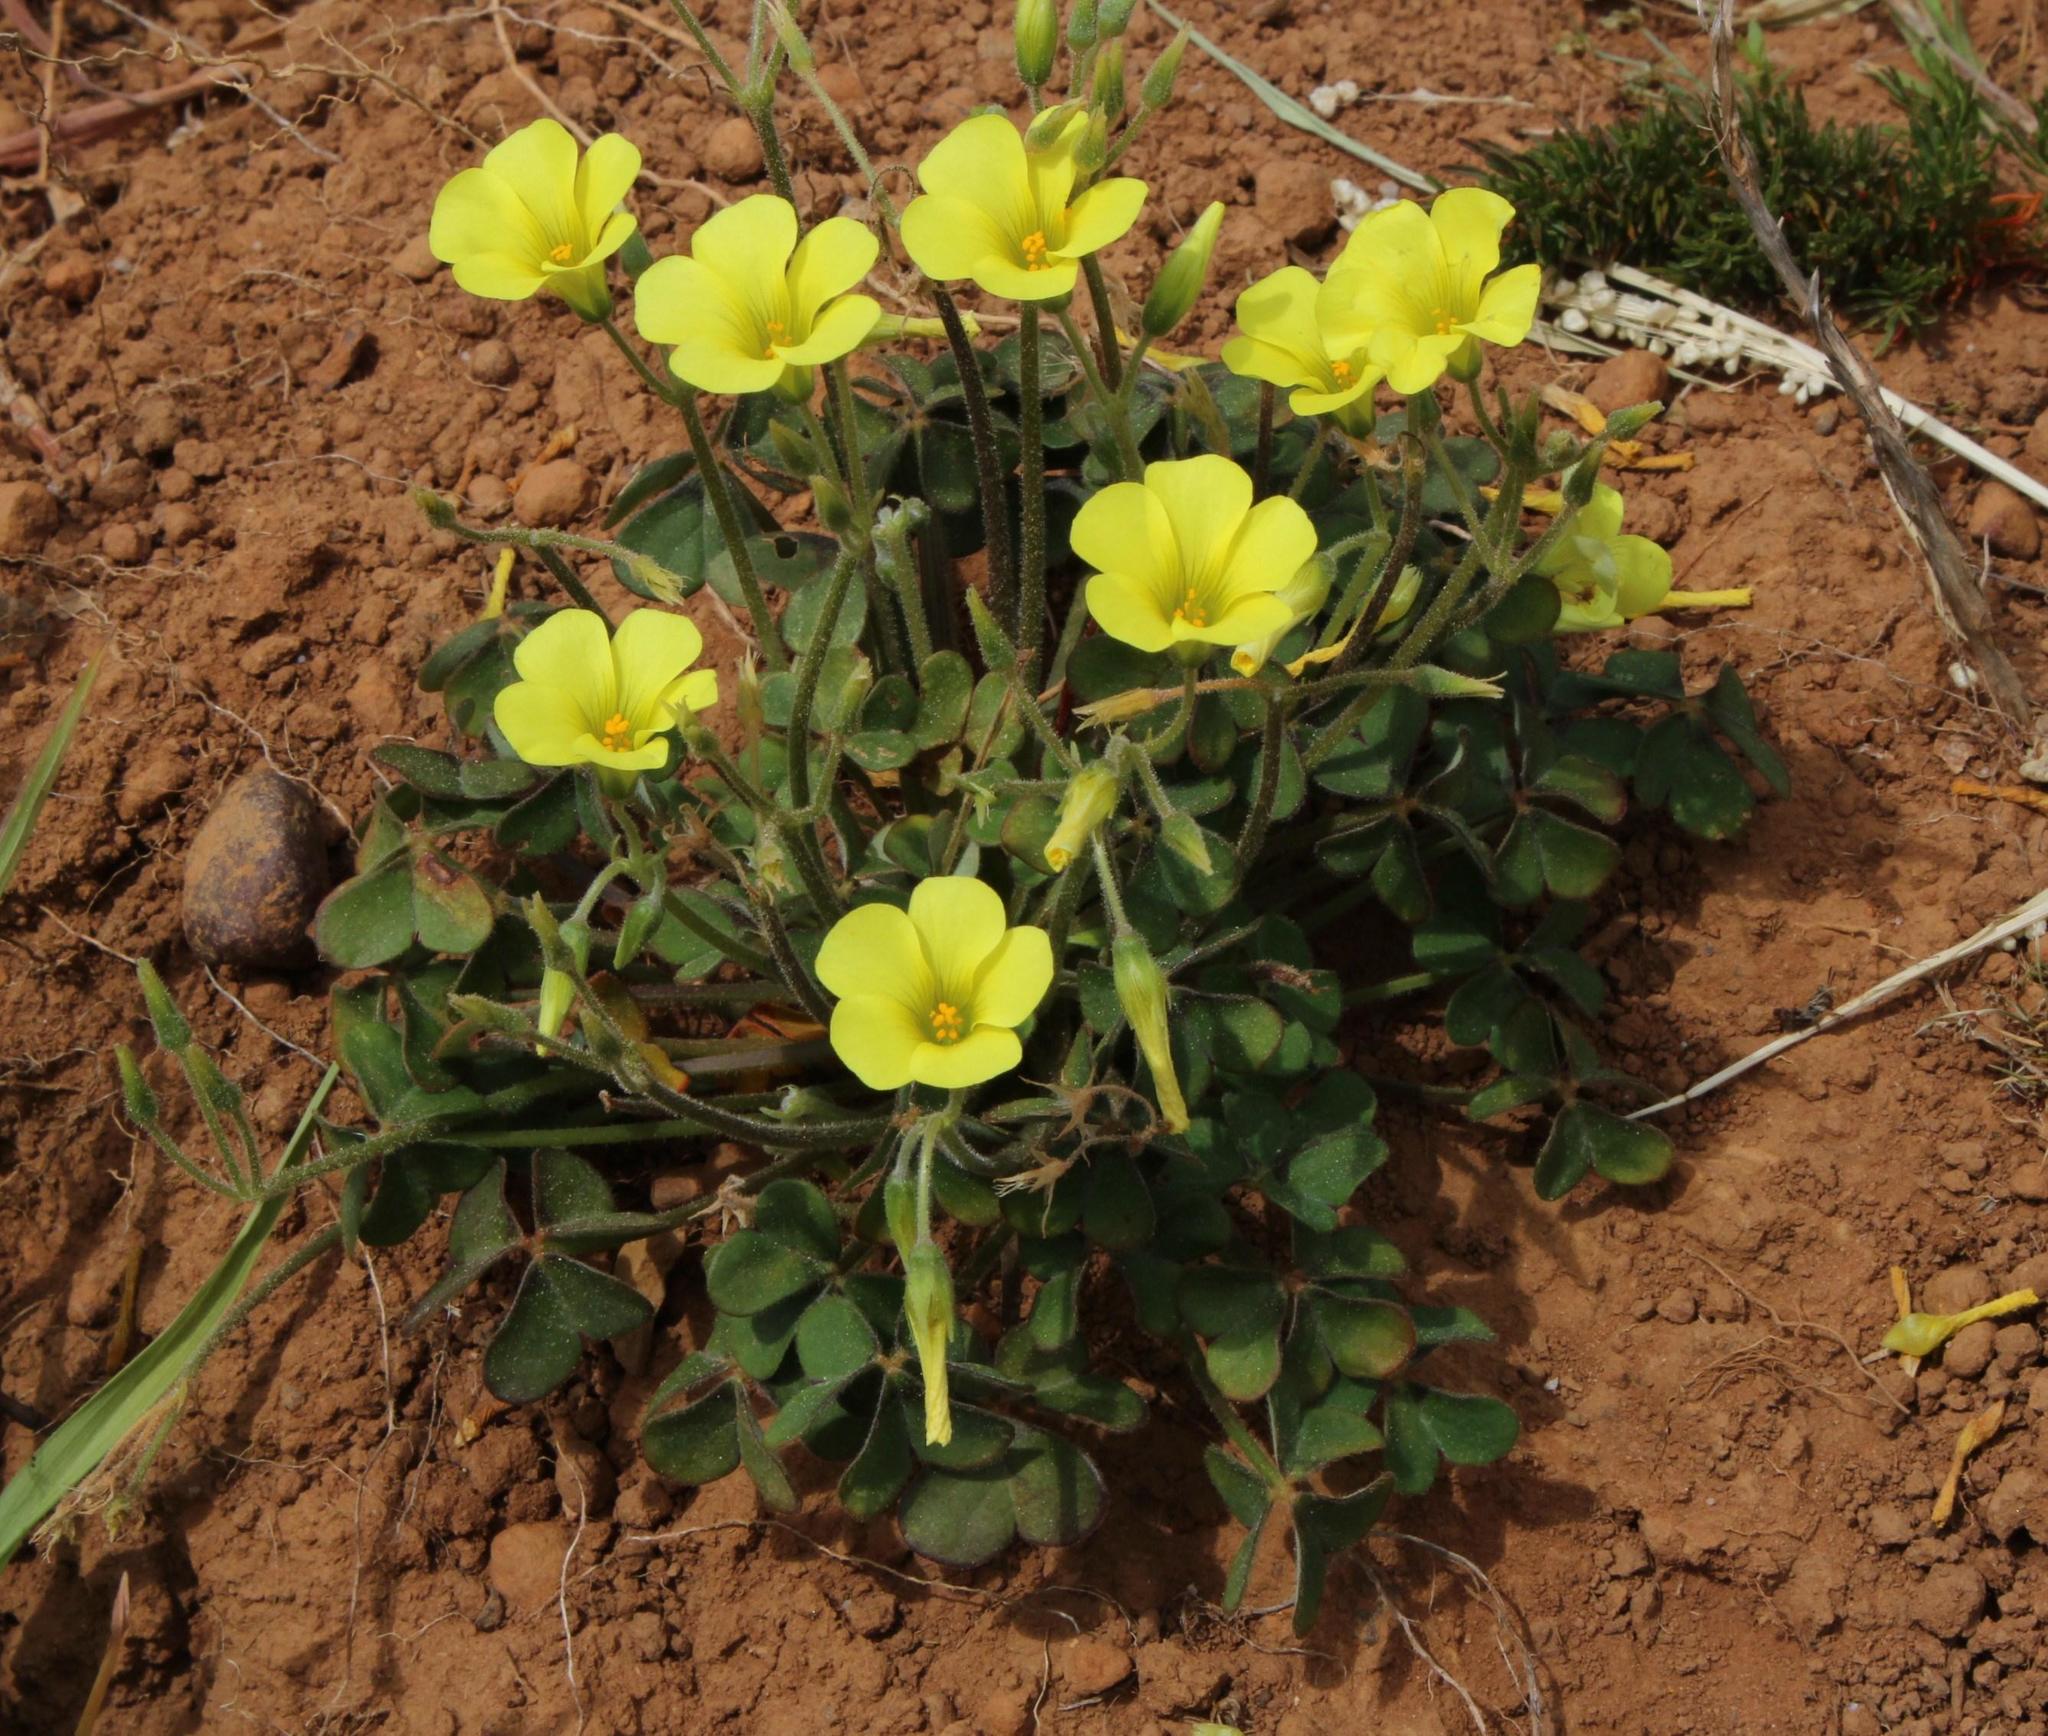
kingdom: Plantae
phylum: Tracheophyta
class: Magnoliopsida
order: Oxalidales
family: Oxalidaceae
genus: Oxalis
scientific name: Oxalis pes-caprae
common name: Bermuda-buttercup
